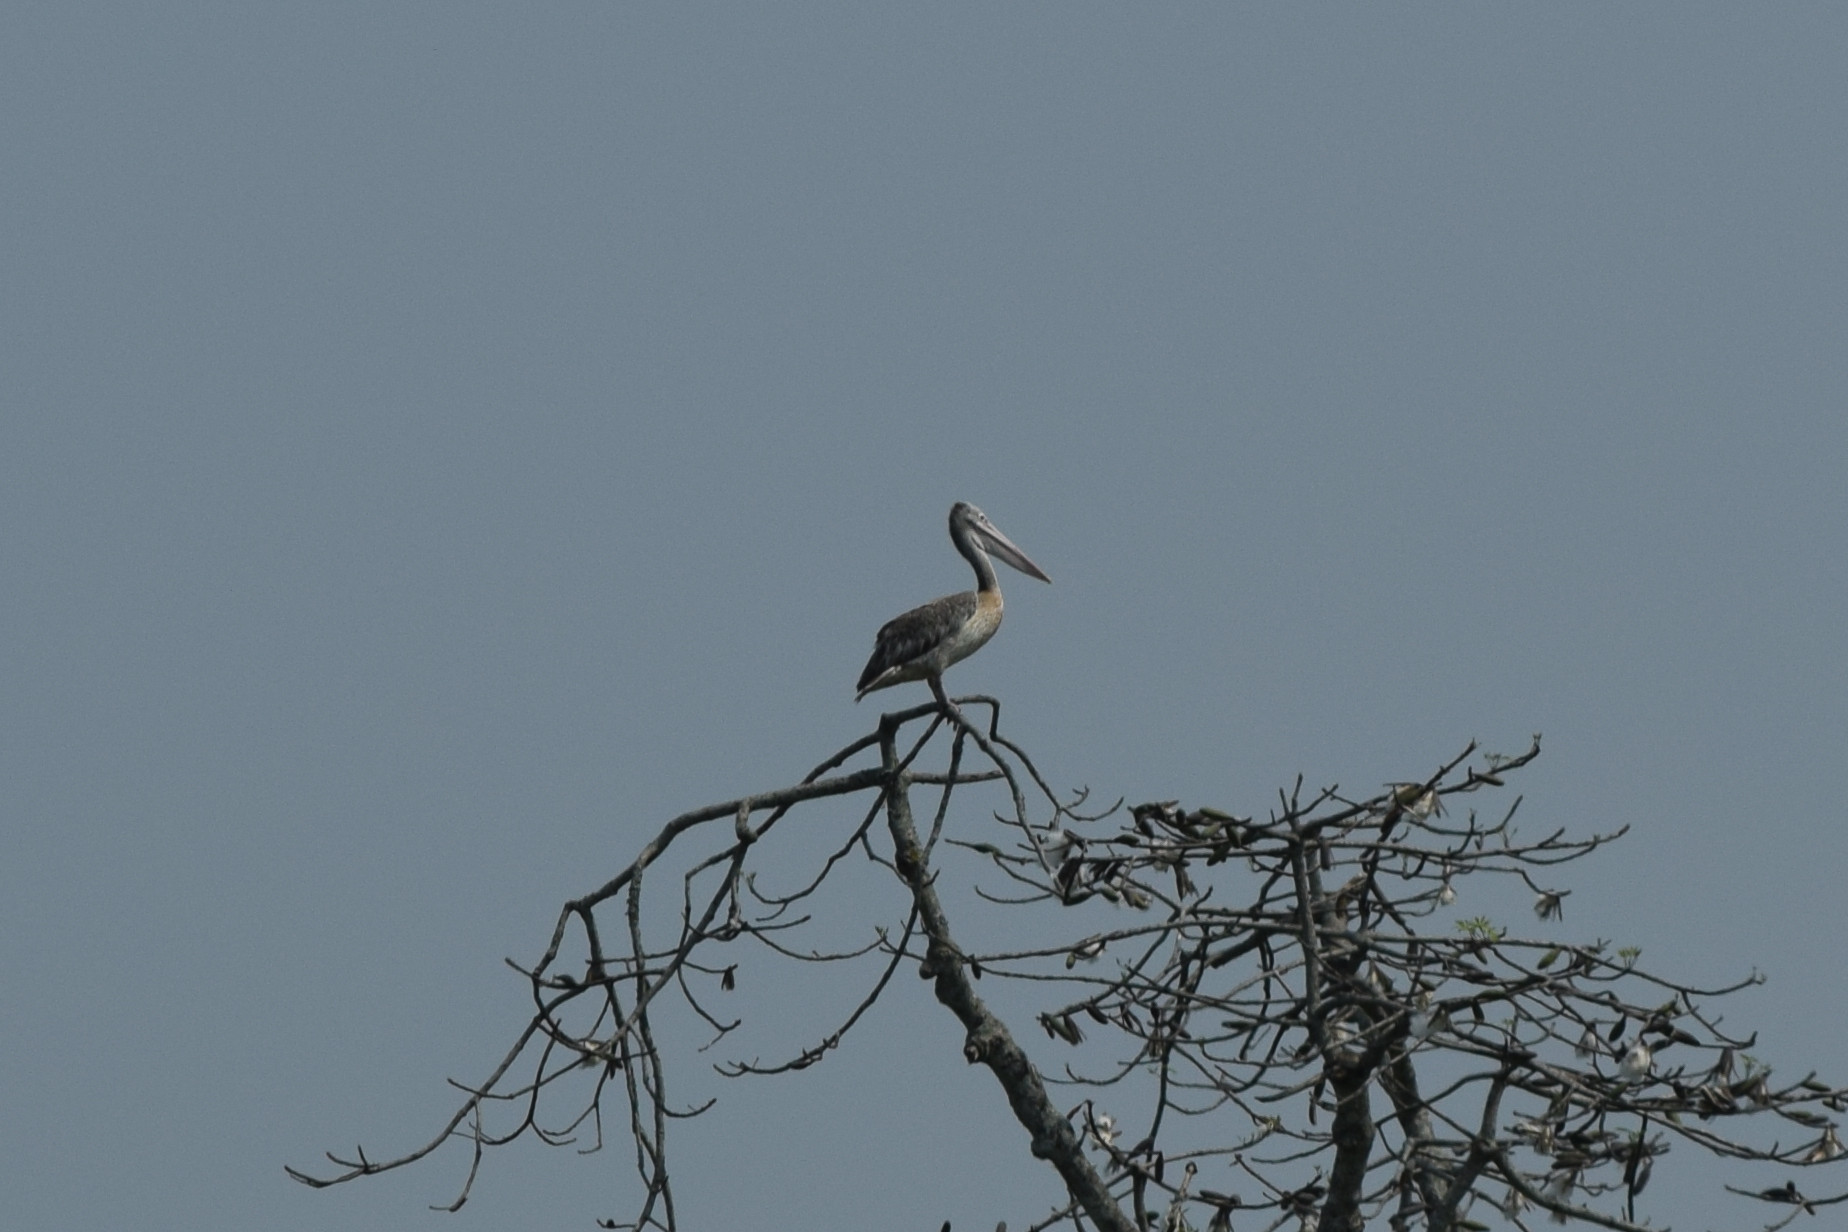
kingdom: Animalia
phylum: Chordata
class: Aves
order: Pelecaniformes
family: Pelecanidae
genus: Pelecanus
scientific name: Pelecanus philippensis
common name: Spot-billed pelican
